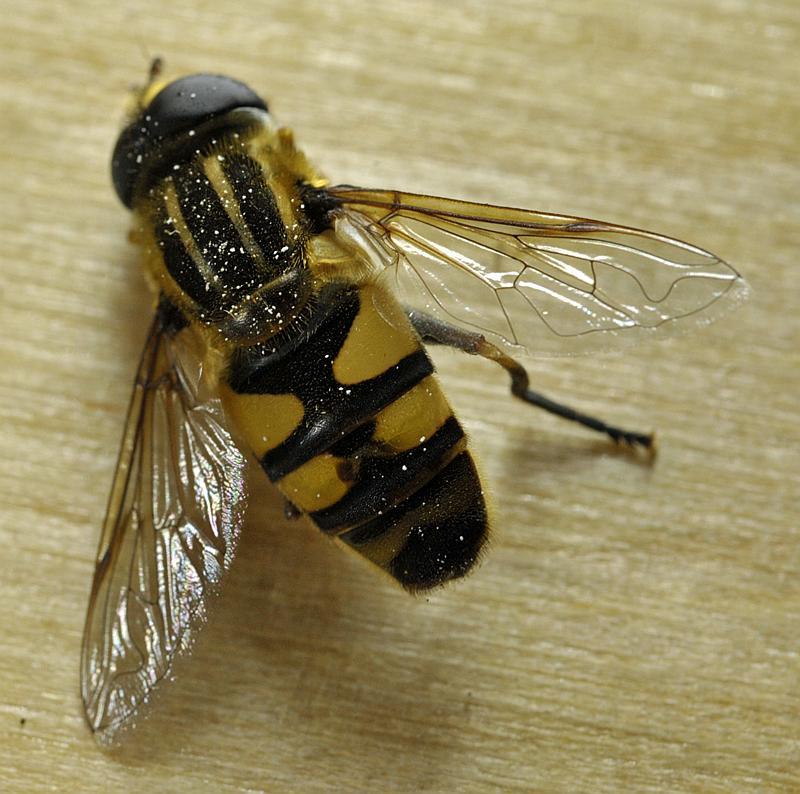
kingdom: Animalia
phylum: Arthropoda
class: Insecta
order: Diptera
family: Syrphidae
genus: Helophilus
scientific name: Helophilus fasciatus
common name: Narrow-headed marsh fly
